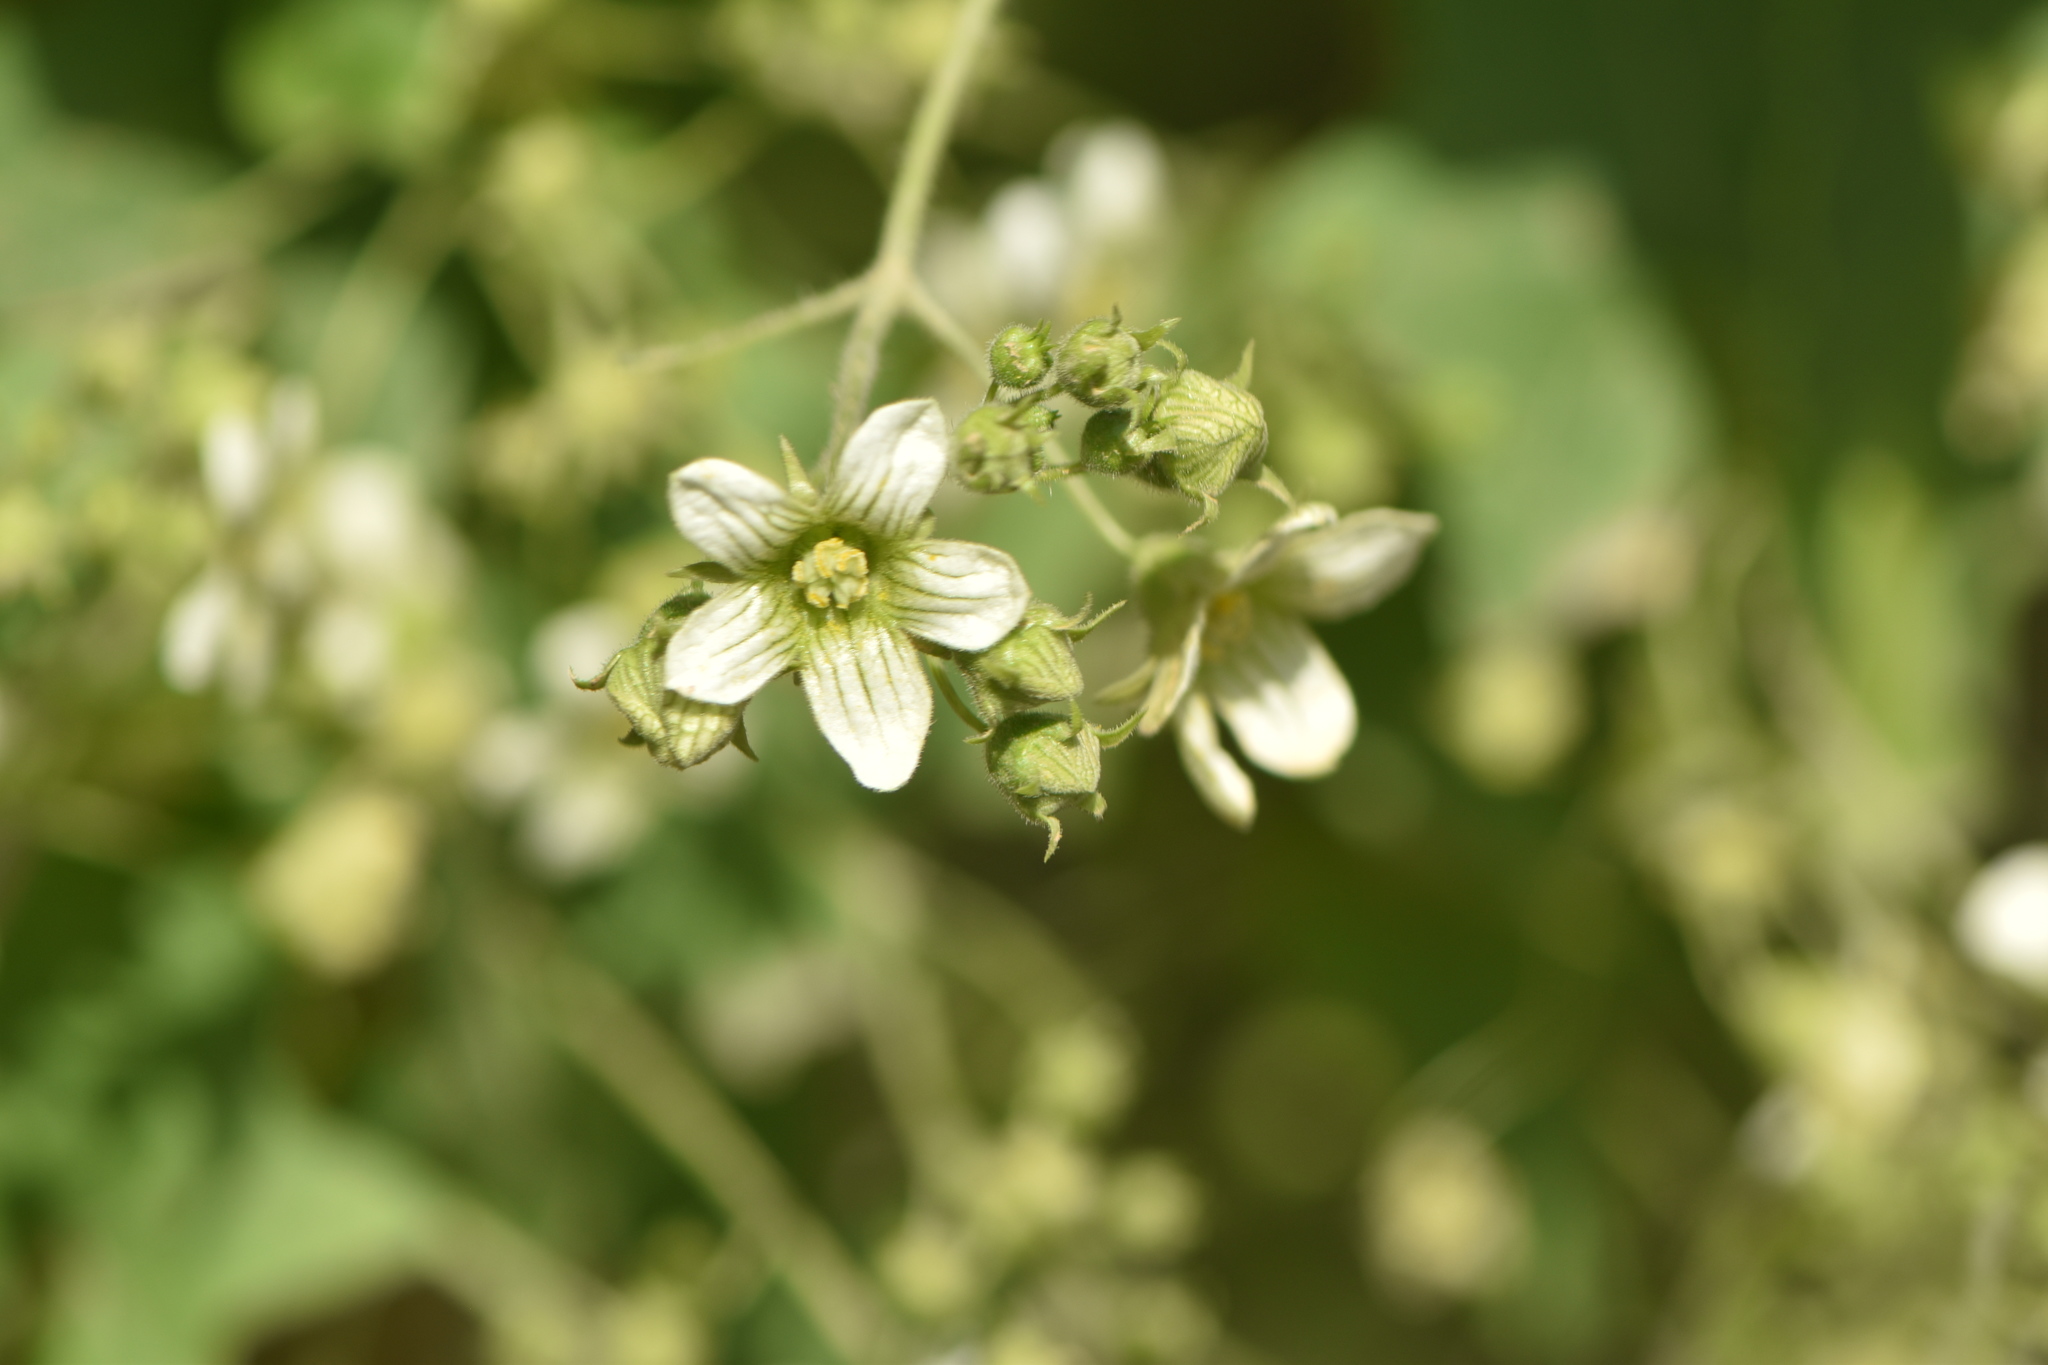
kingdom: Plantae
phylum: Tracheophyta
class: Magnoliopsida
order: Cucurbitales
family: Cucurbitaceae
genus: Bryonia
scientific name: Bryonia dioica
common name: White bryony
